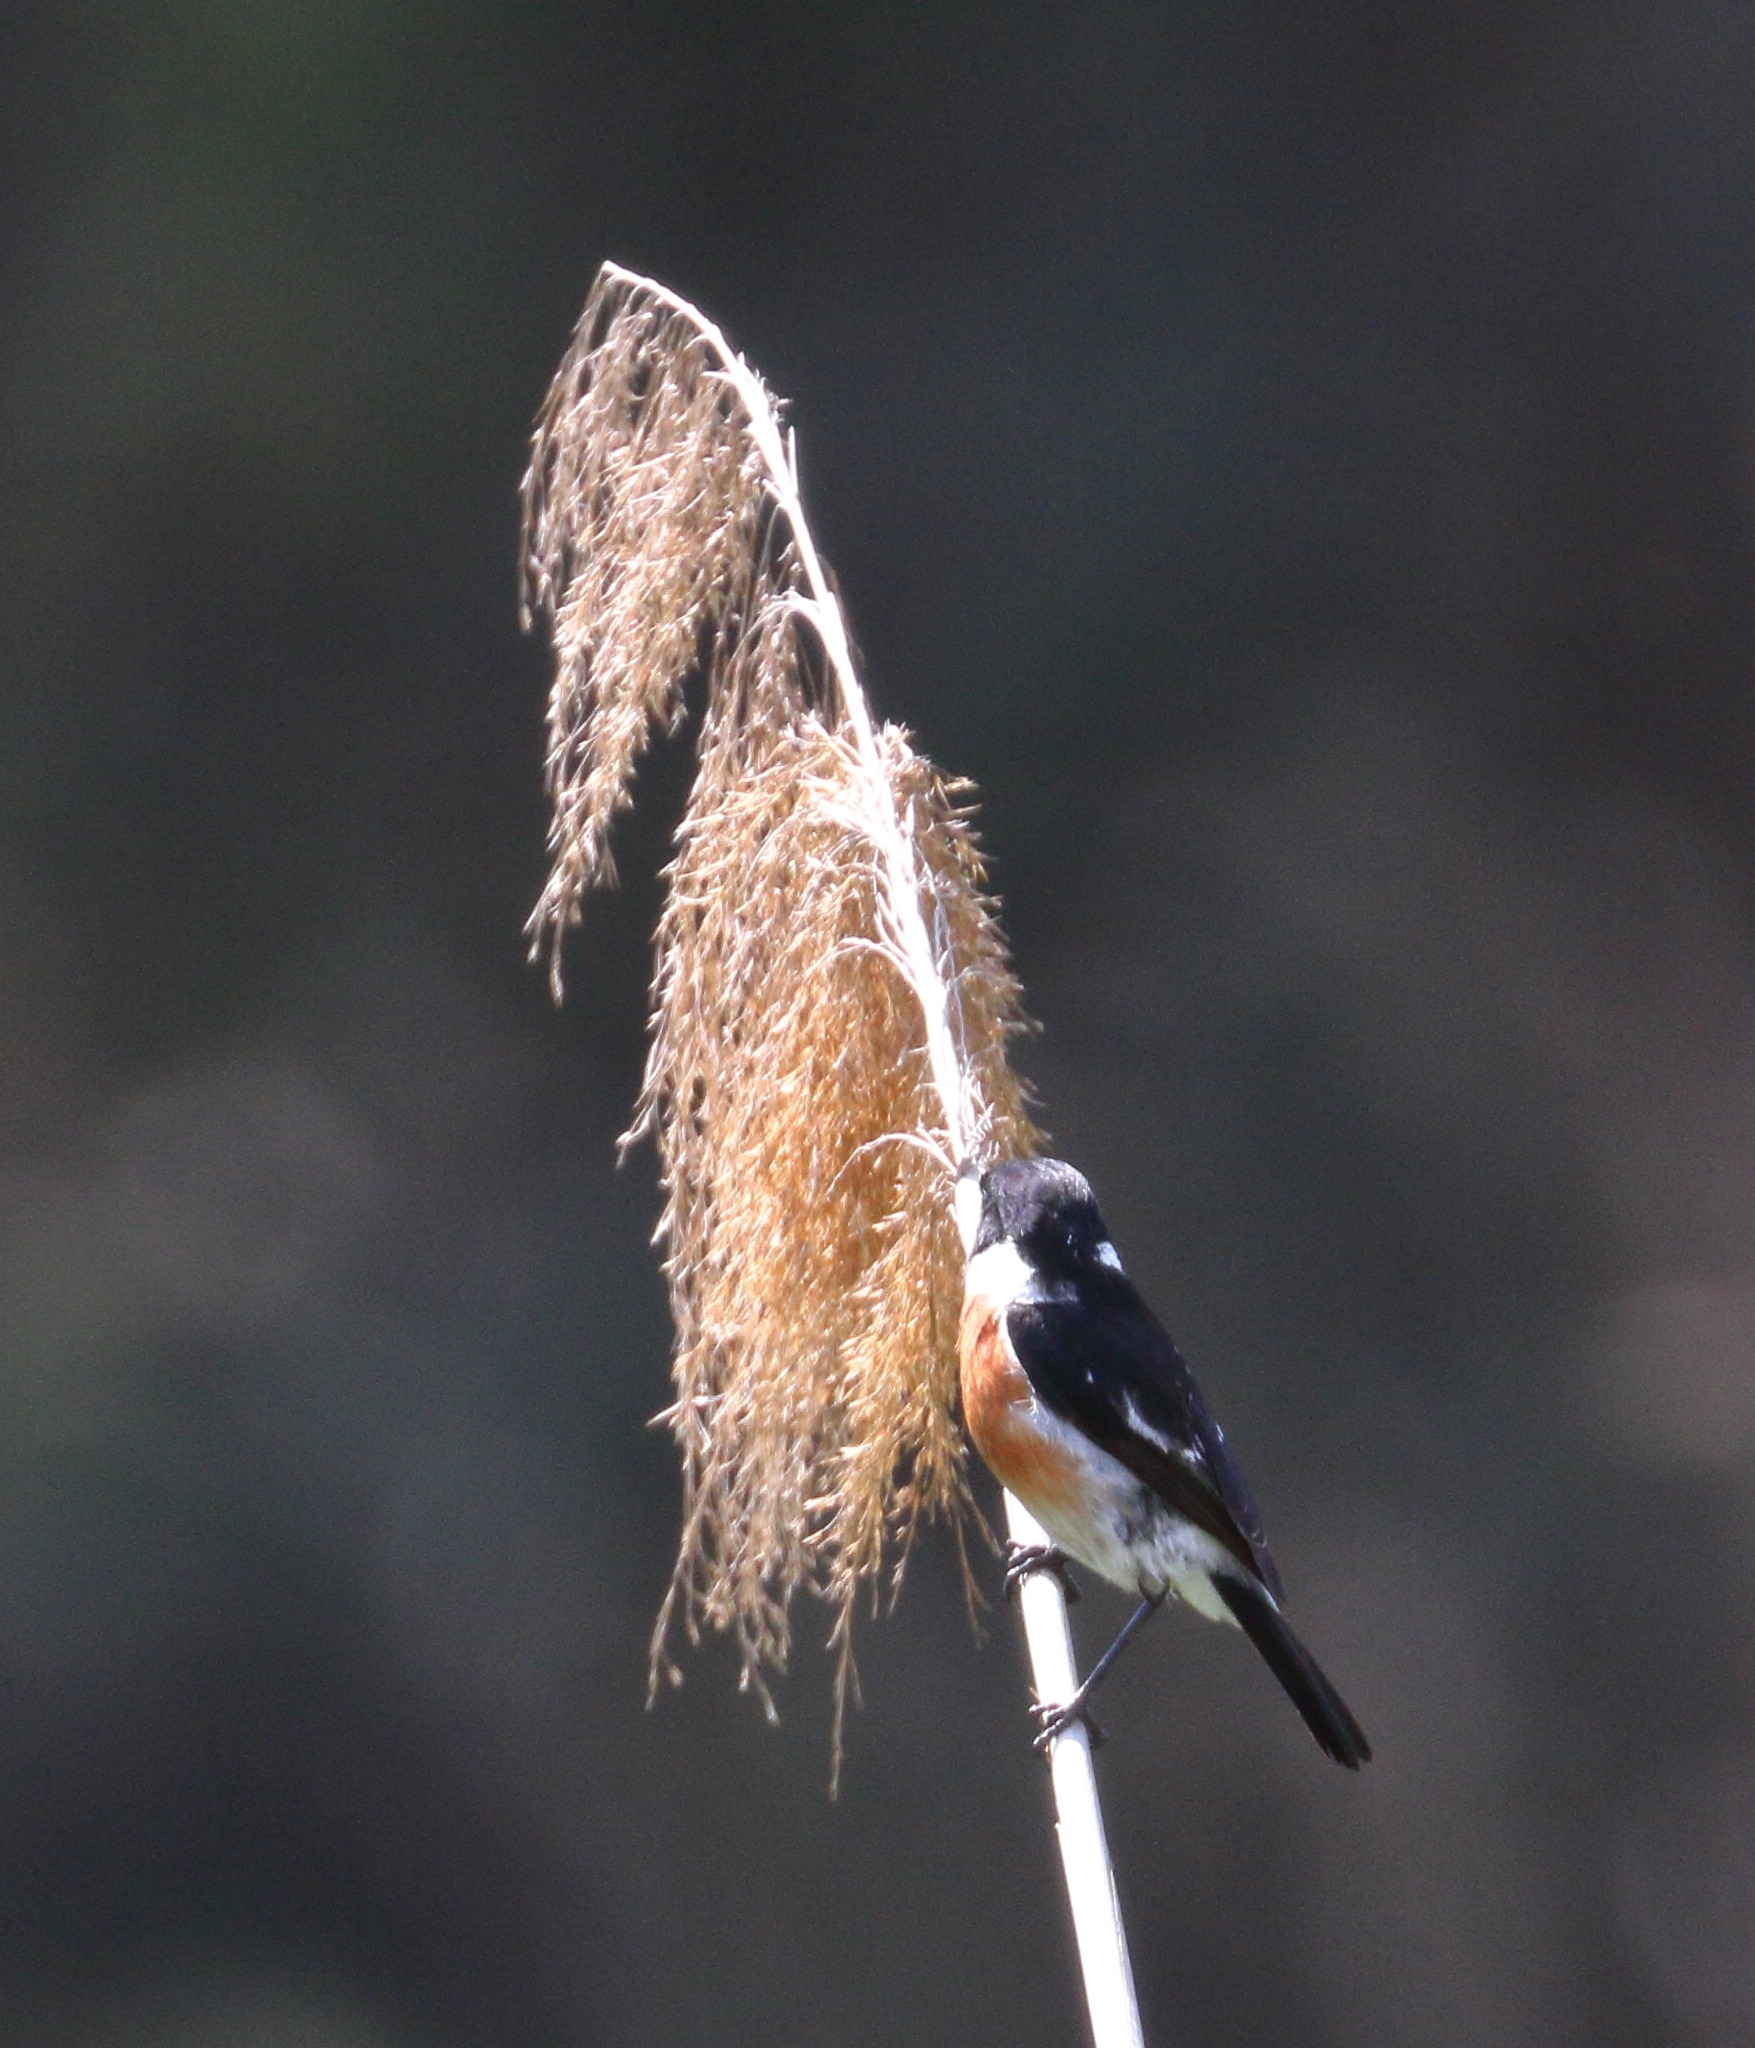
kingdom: Animalia
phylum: Chordata
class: Aves
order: Passeriformes
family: Muscicapidae
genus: Saxicola
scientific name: Saxicola torquatus
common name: African stonechat
